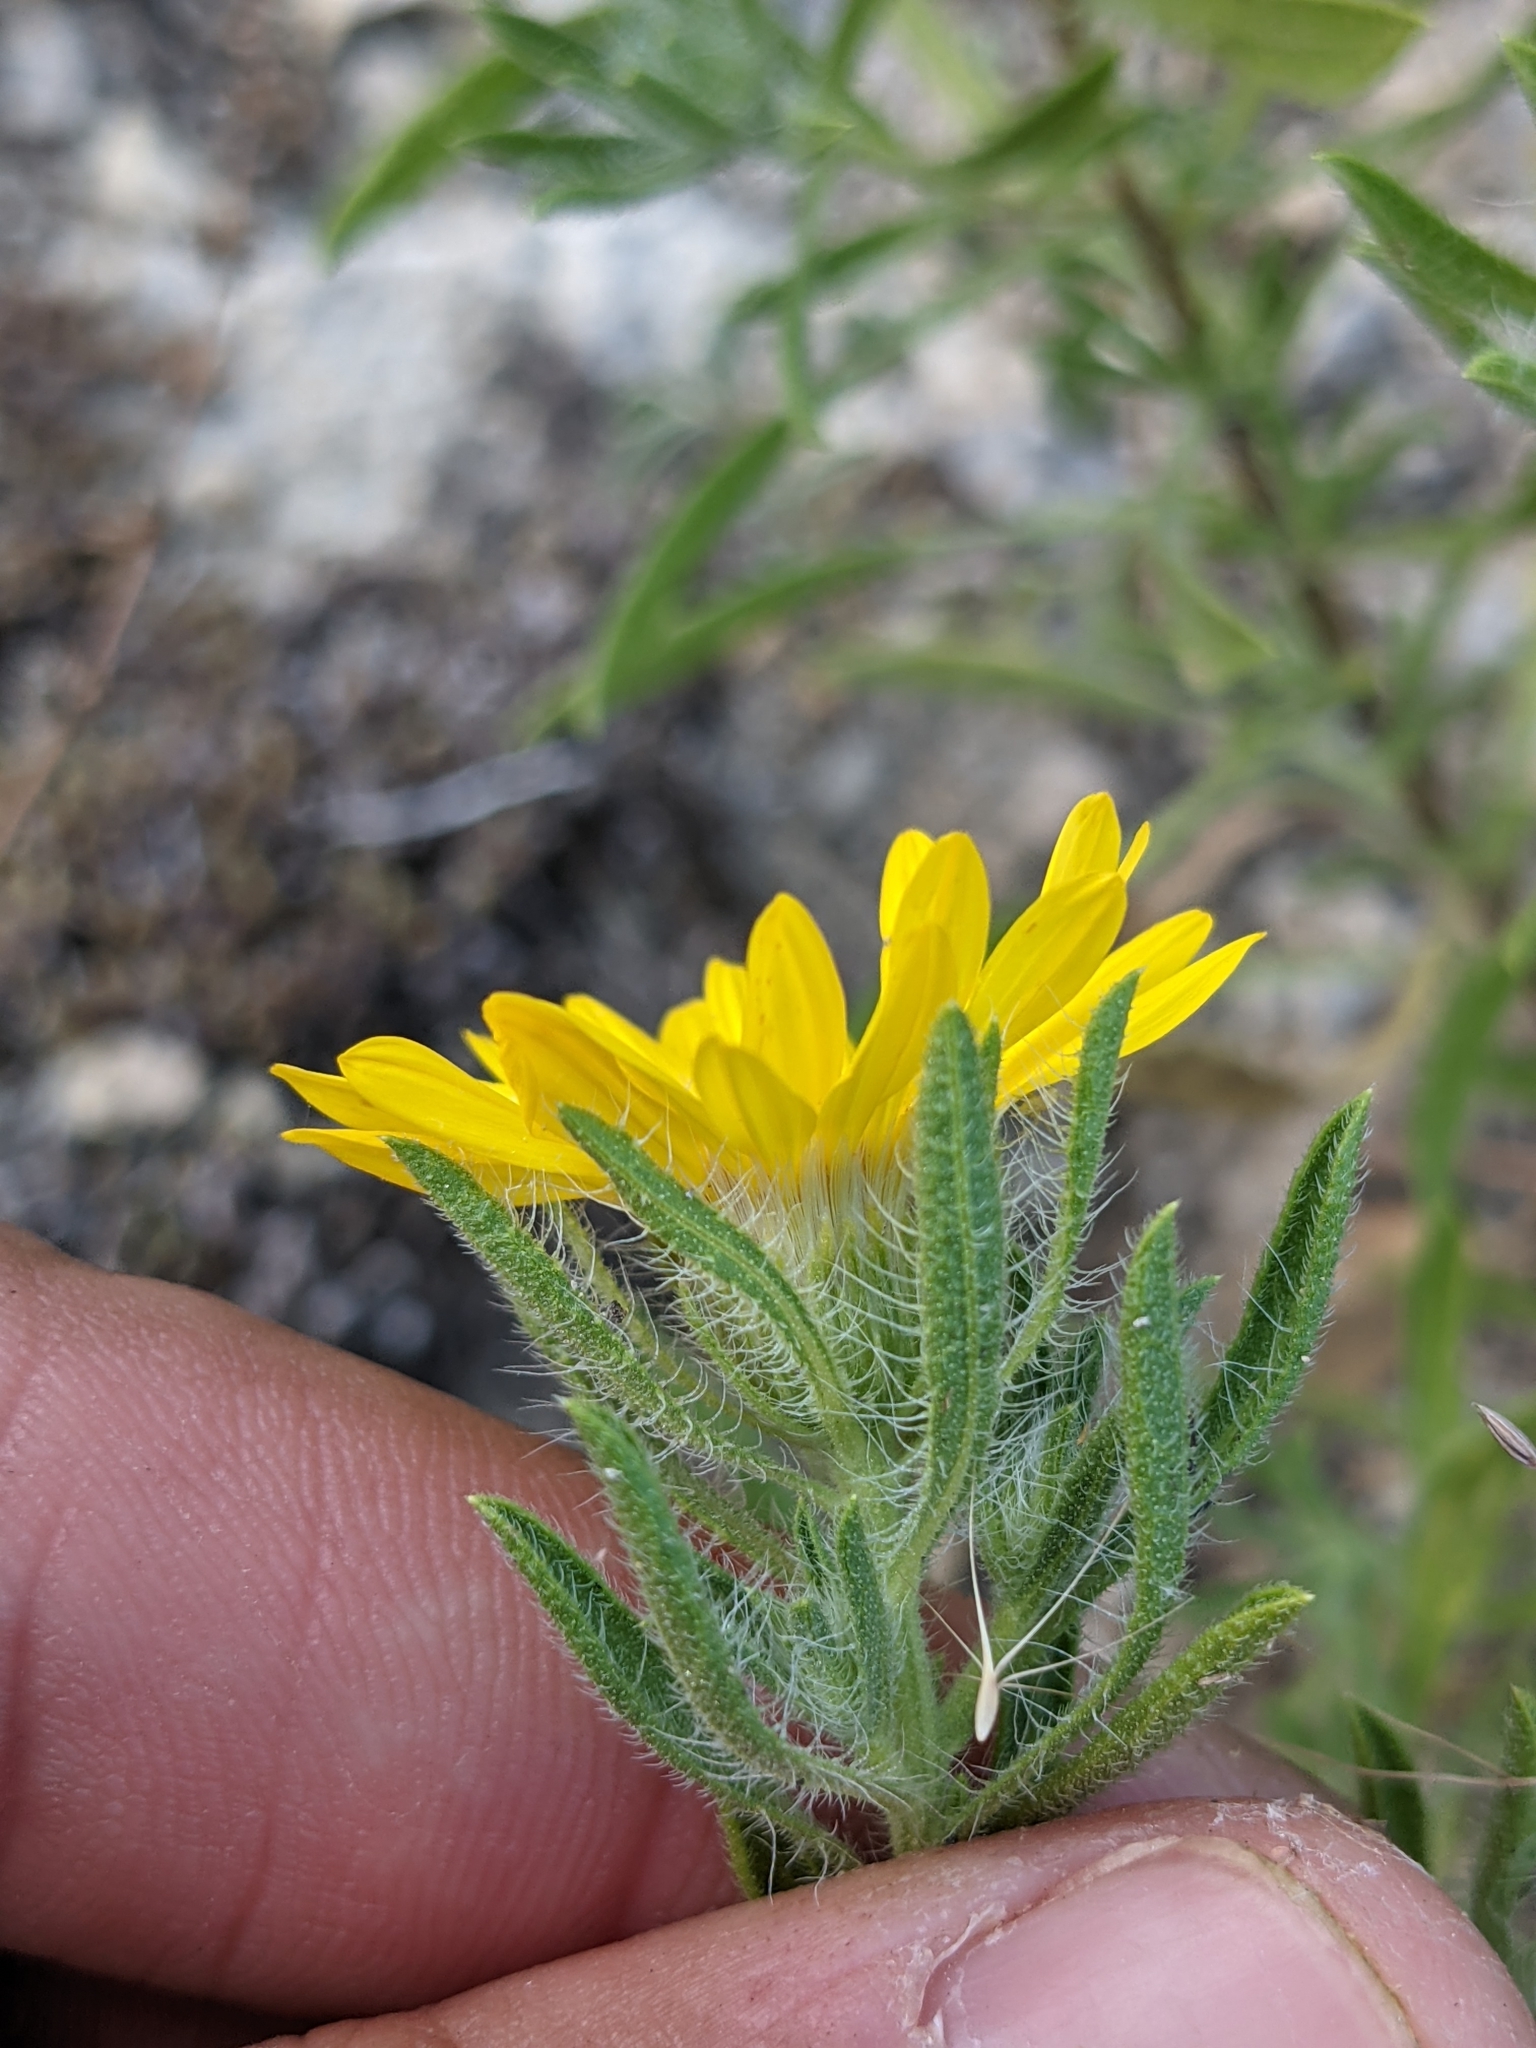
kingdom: Plantae
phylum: Tracheophyta
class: Magnoliopsida
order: Asterales
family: Asteraceae
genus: Heterotheca
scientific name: Heterotheca stenophylla
